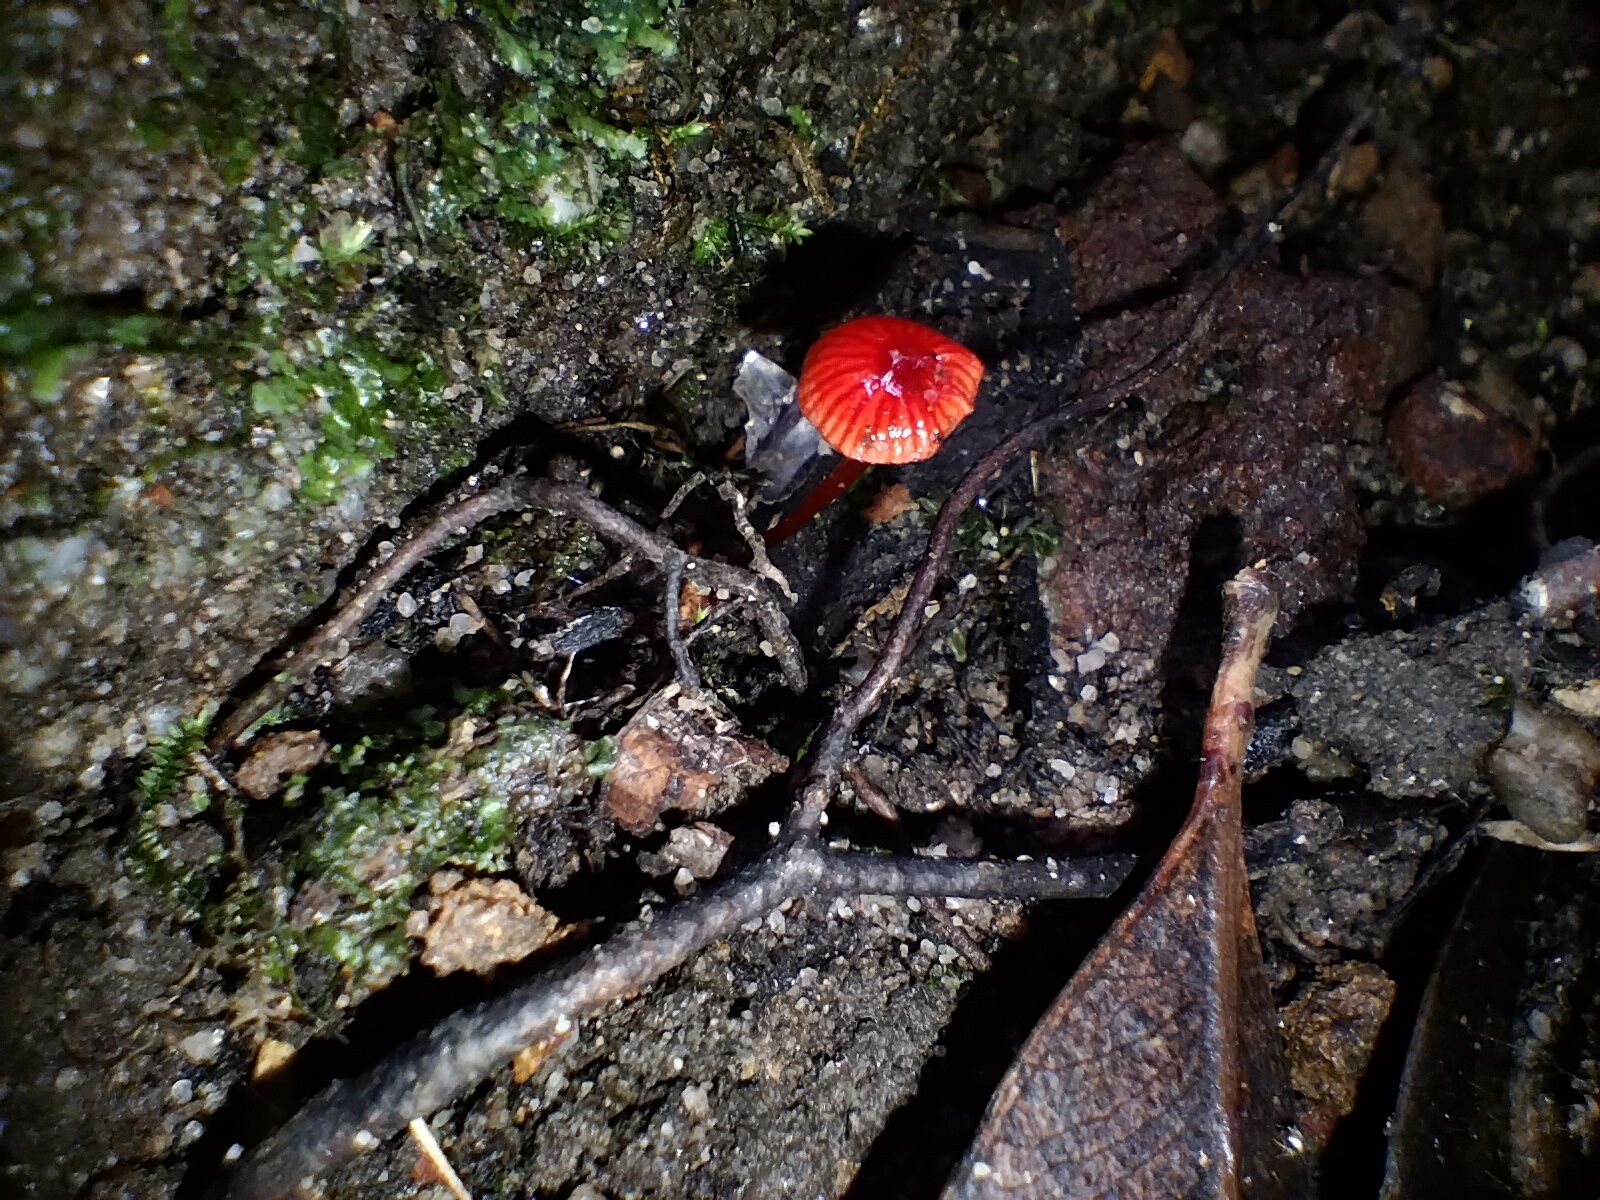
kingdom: Fungi
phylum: Basidiomycota
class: Agaricomycetes
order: Agaricales
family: Mycenaceae
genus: Cruentomycena
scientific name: Cruentomycena viscidocruenta
